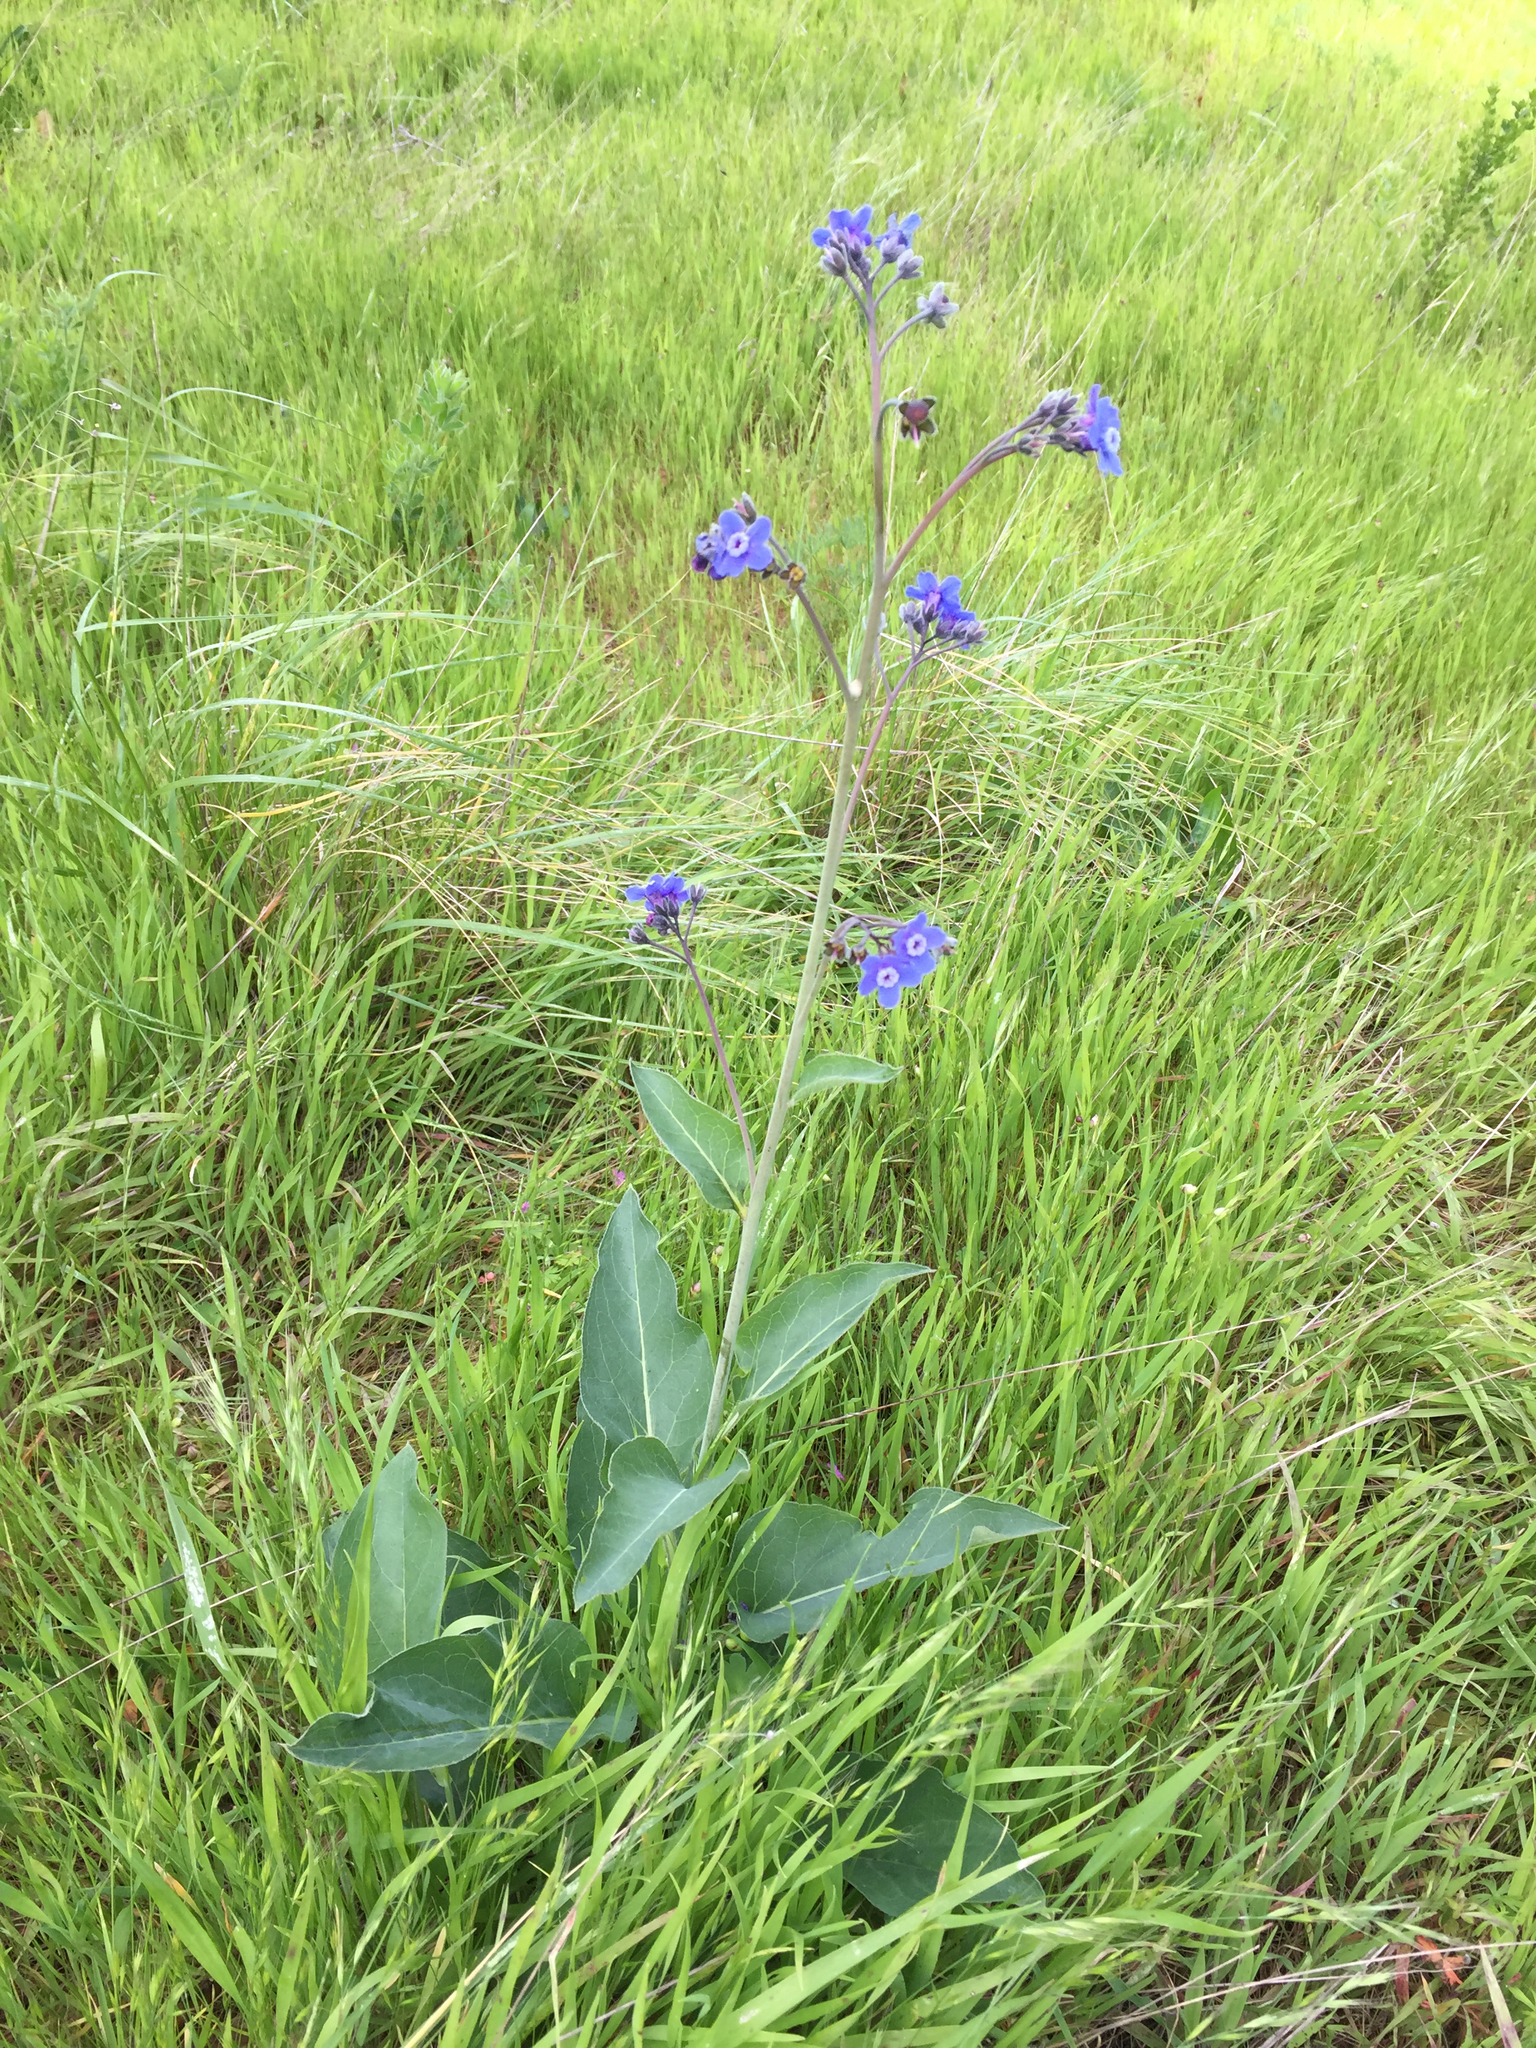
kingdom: Plantae
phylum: Tracheophyta
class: Magnoliopsida
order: Boraginales
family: Boraginaceae
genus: Adelinia
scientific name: Adelinia grande
